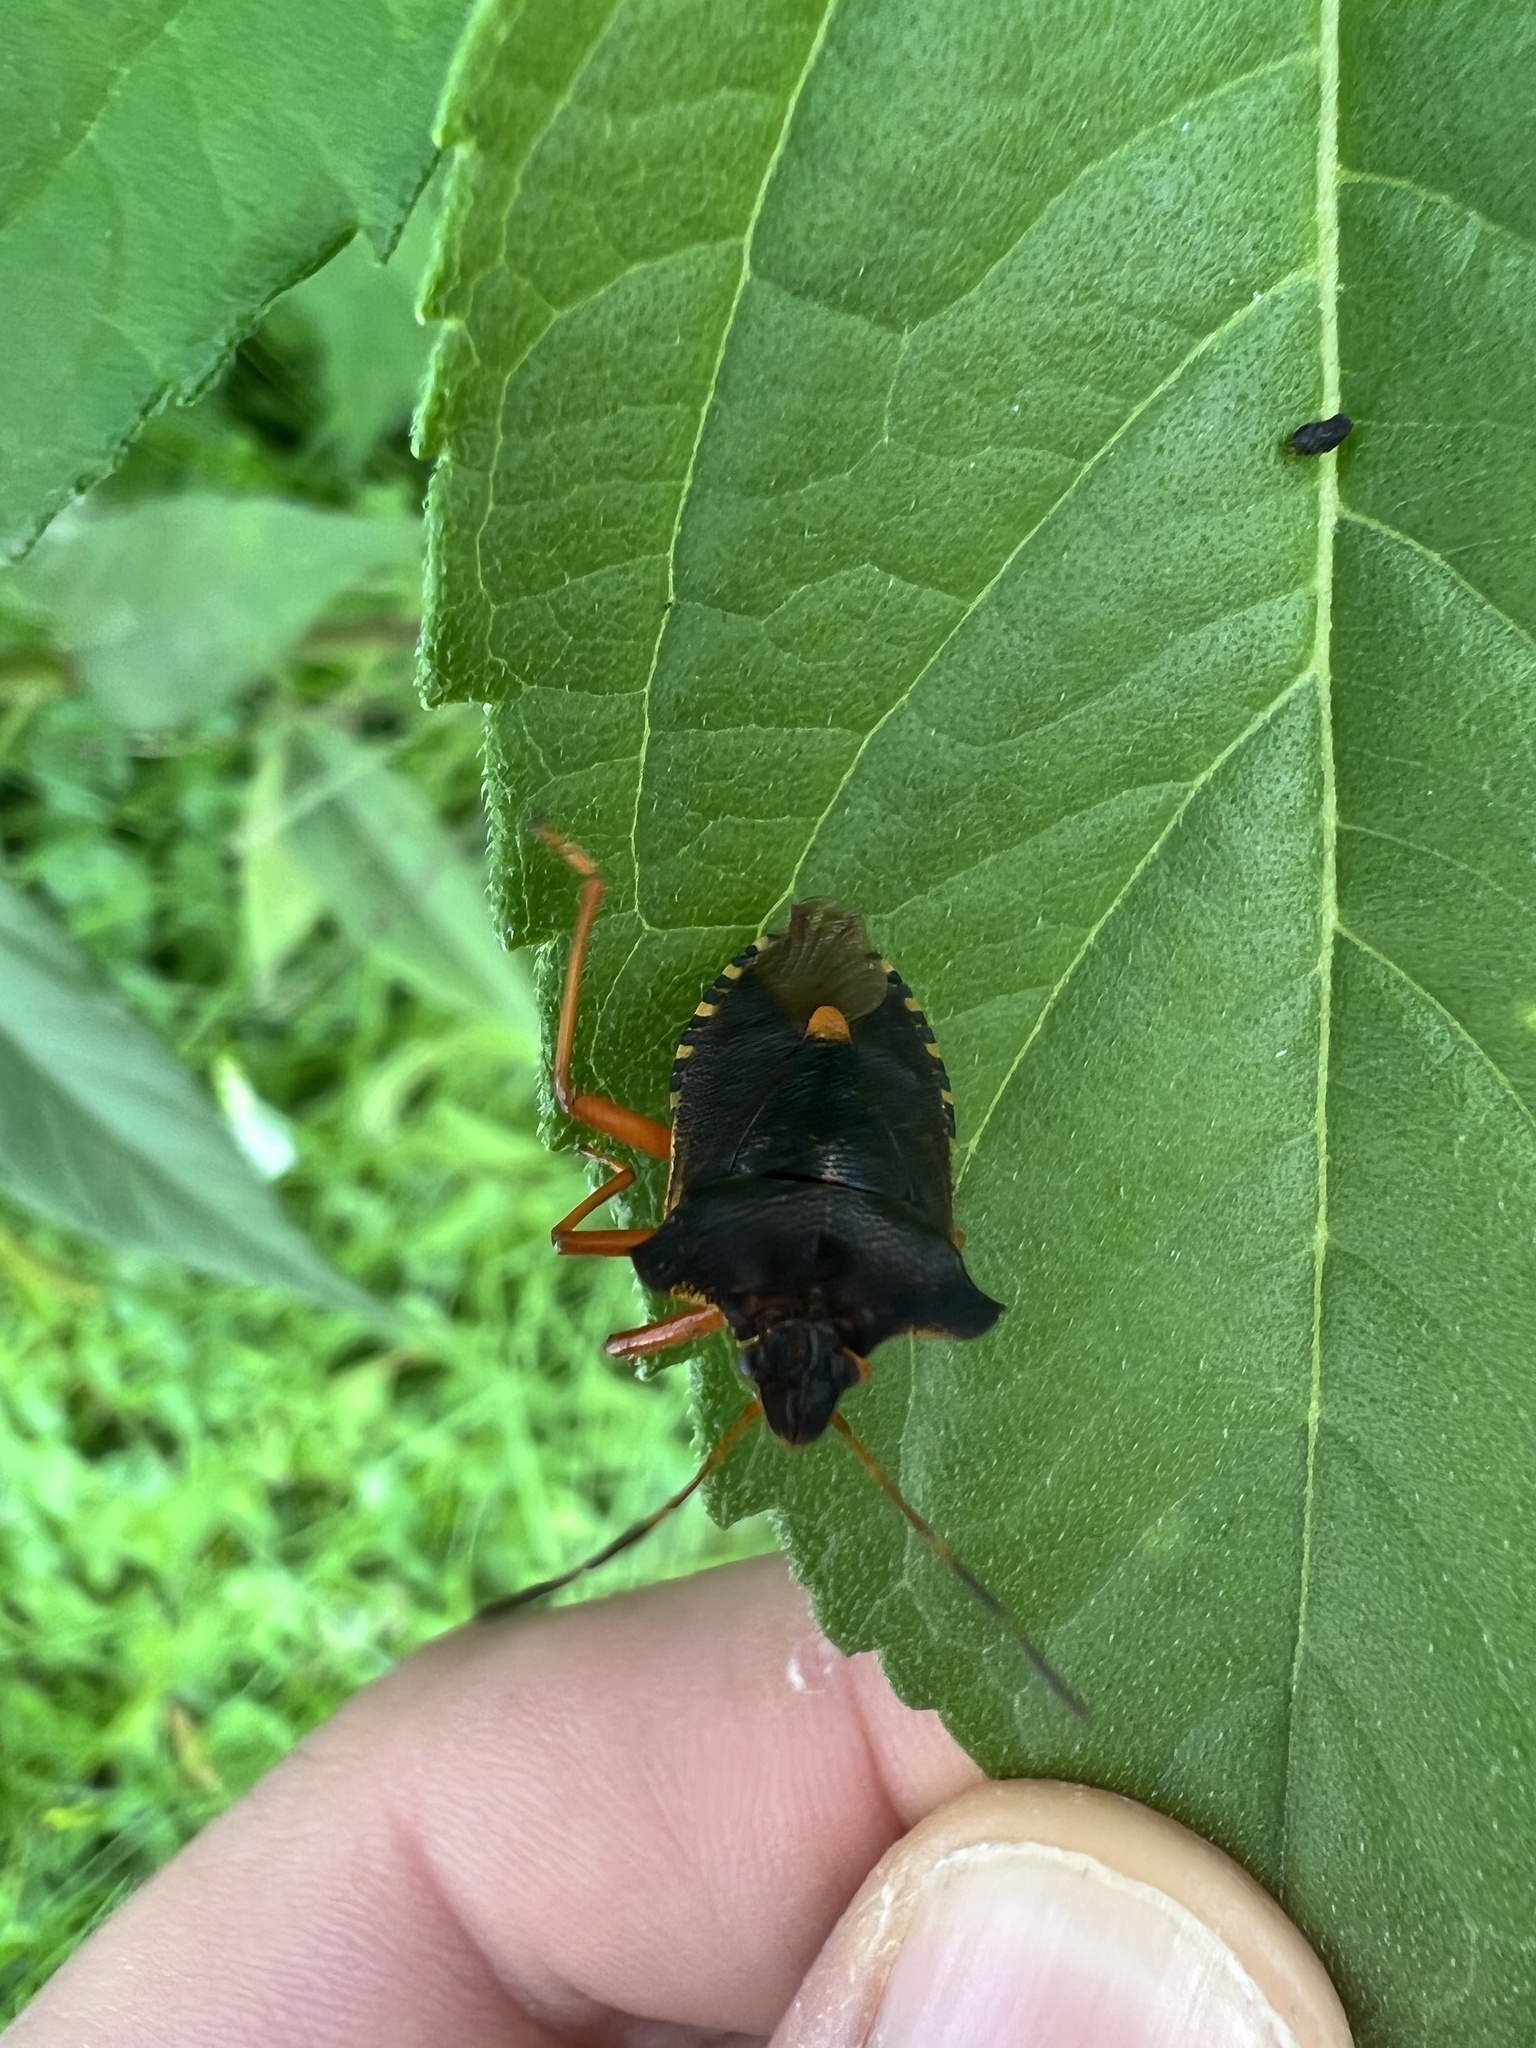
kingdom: Animalia
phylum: Arthropoda
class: Insecta
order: Hemiptera
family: Pentatomidae
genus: Pentatoma
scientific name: Pentatoma rufipes
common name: Forest bug
